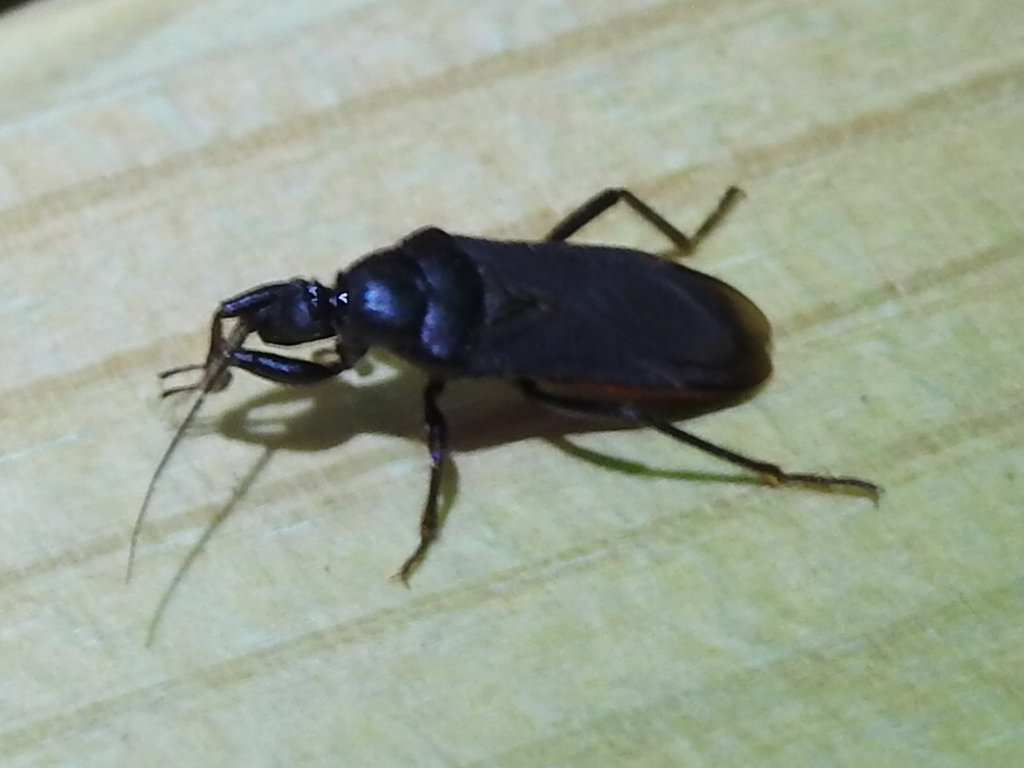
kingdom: Animalia
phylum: Arthropoda
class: Insecta
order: Hemiptera
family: Reduviidae
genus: Melanolestes
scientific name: Melanolestes picipes
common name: Assassin bug
